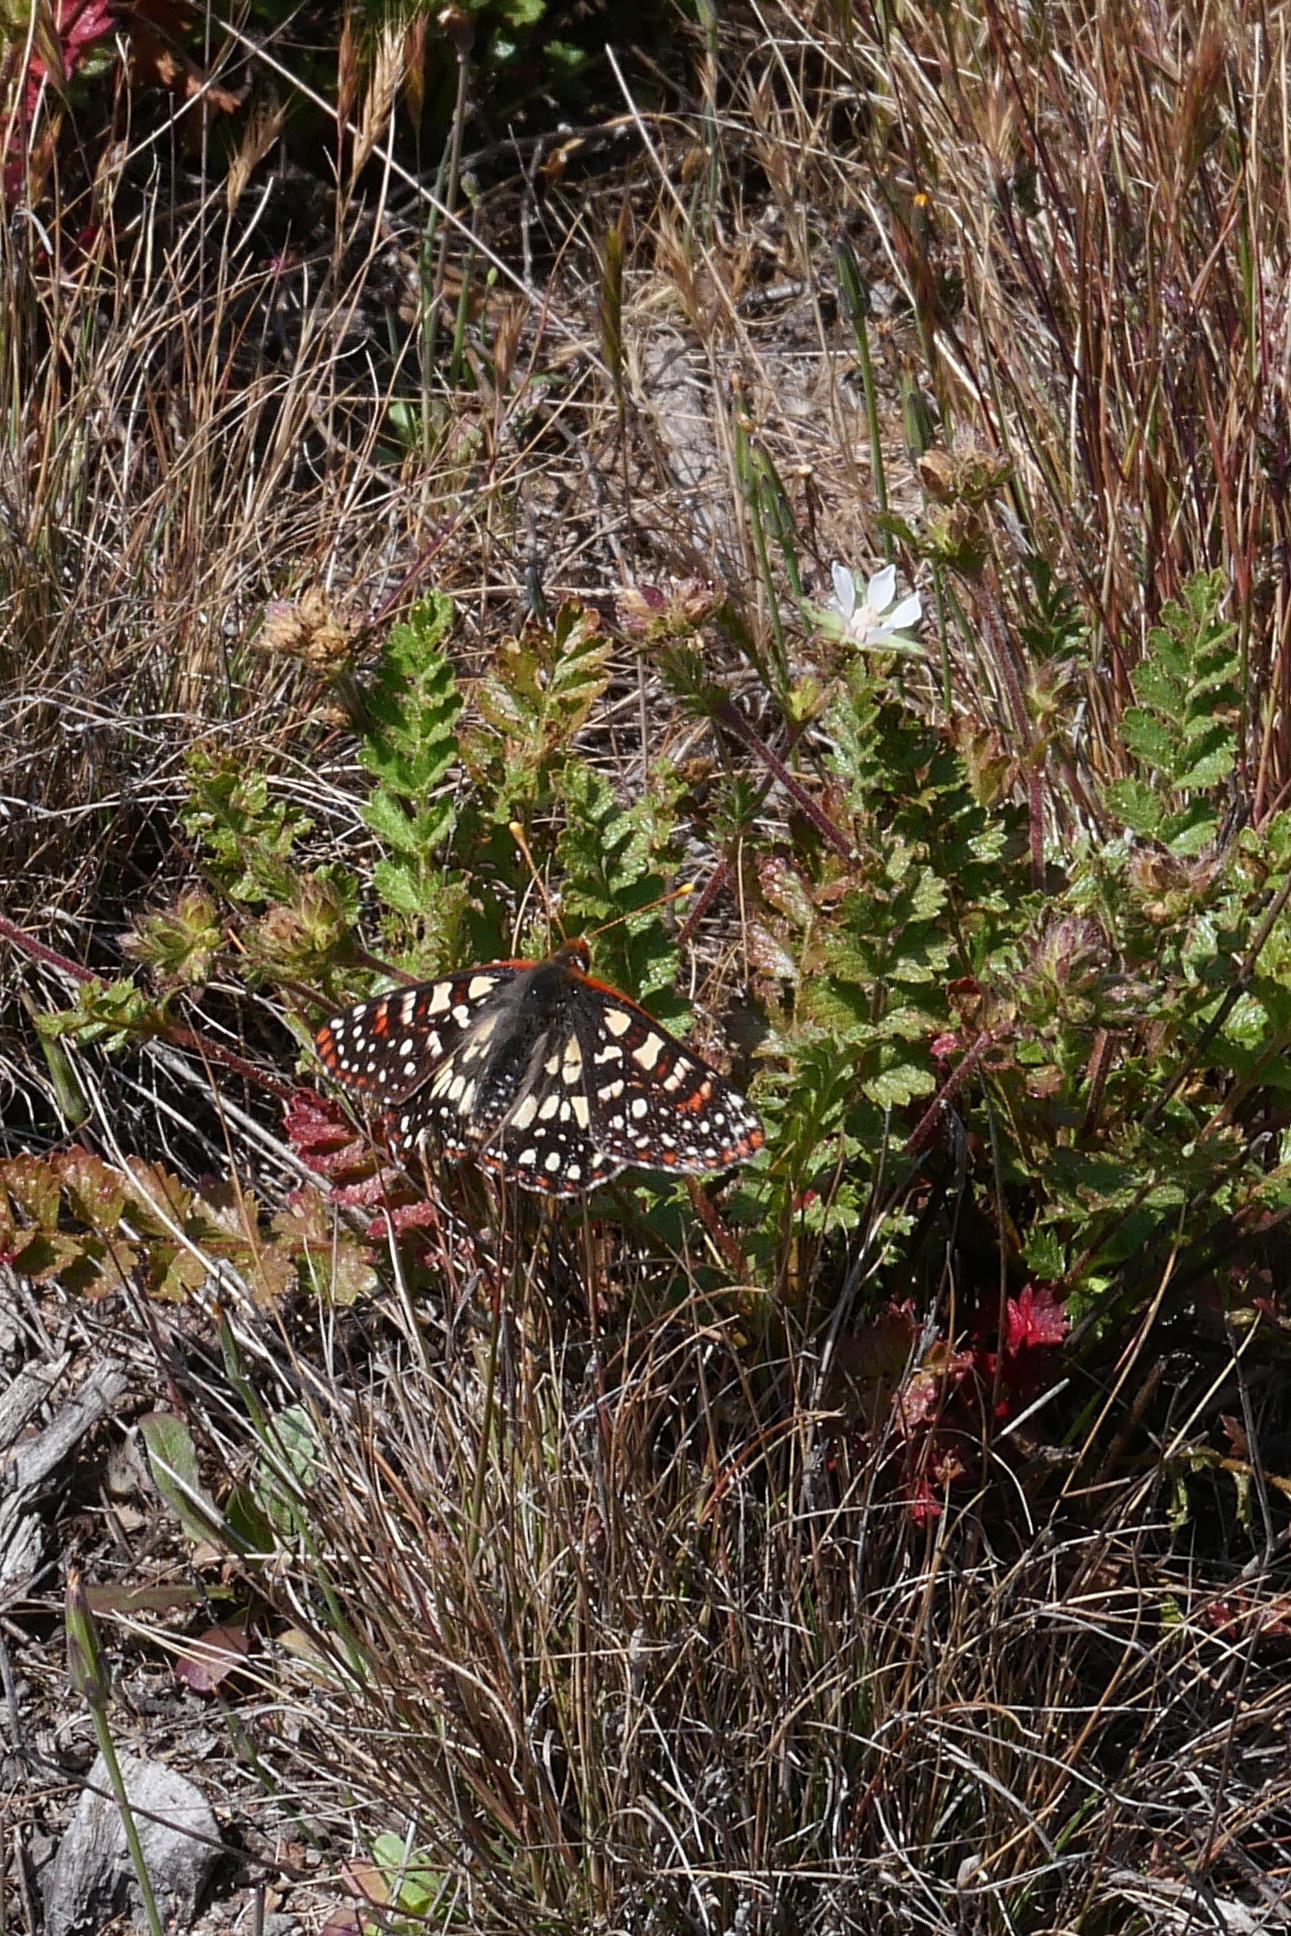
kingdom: Animalia
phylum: Arthropoda
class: Insecta
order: Lepidoptera
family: Nymphalidae
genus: Occidryas
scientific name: Occidryas chalcedona
